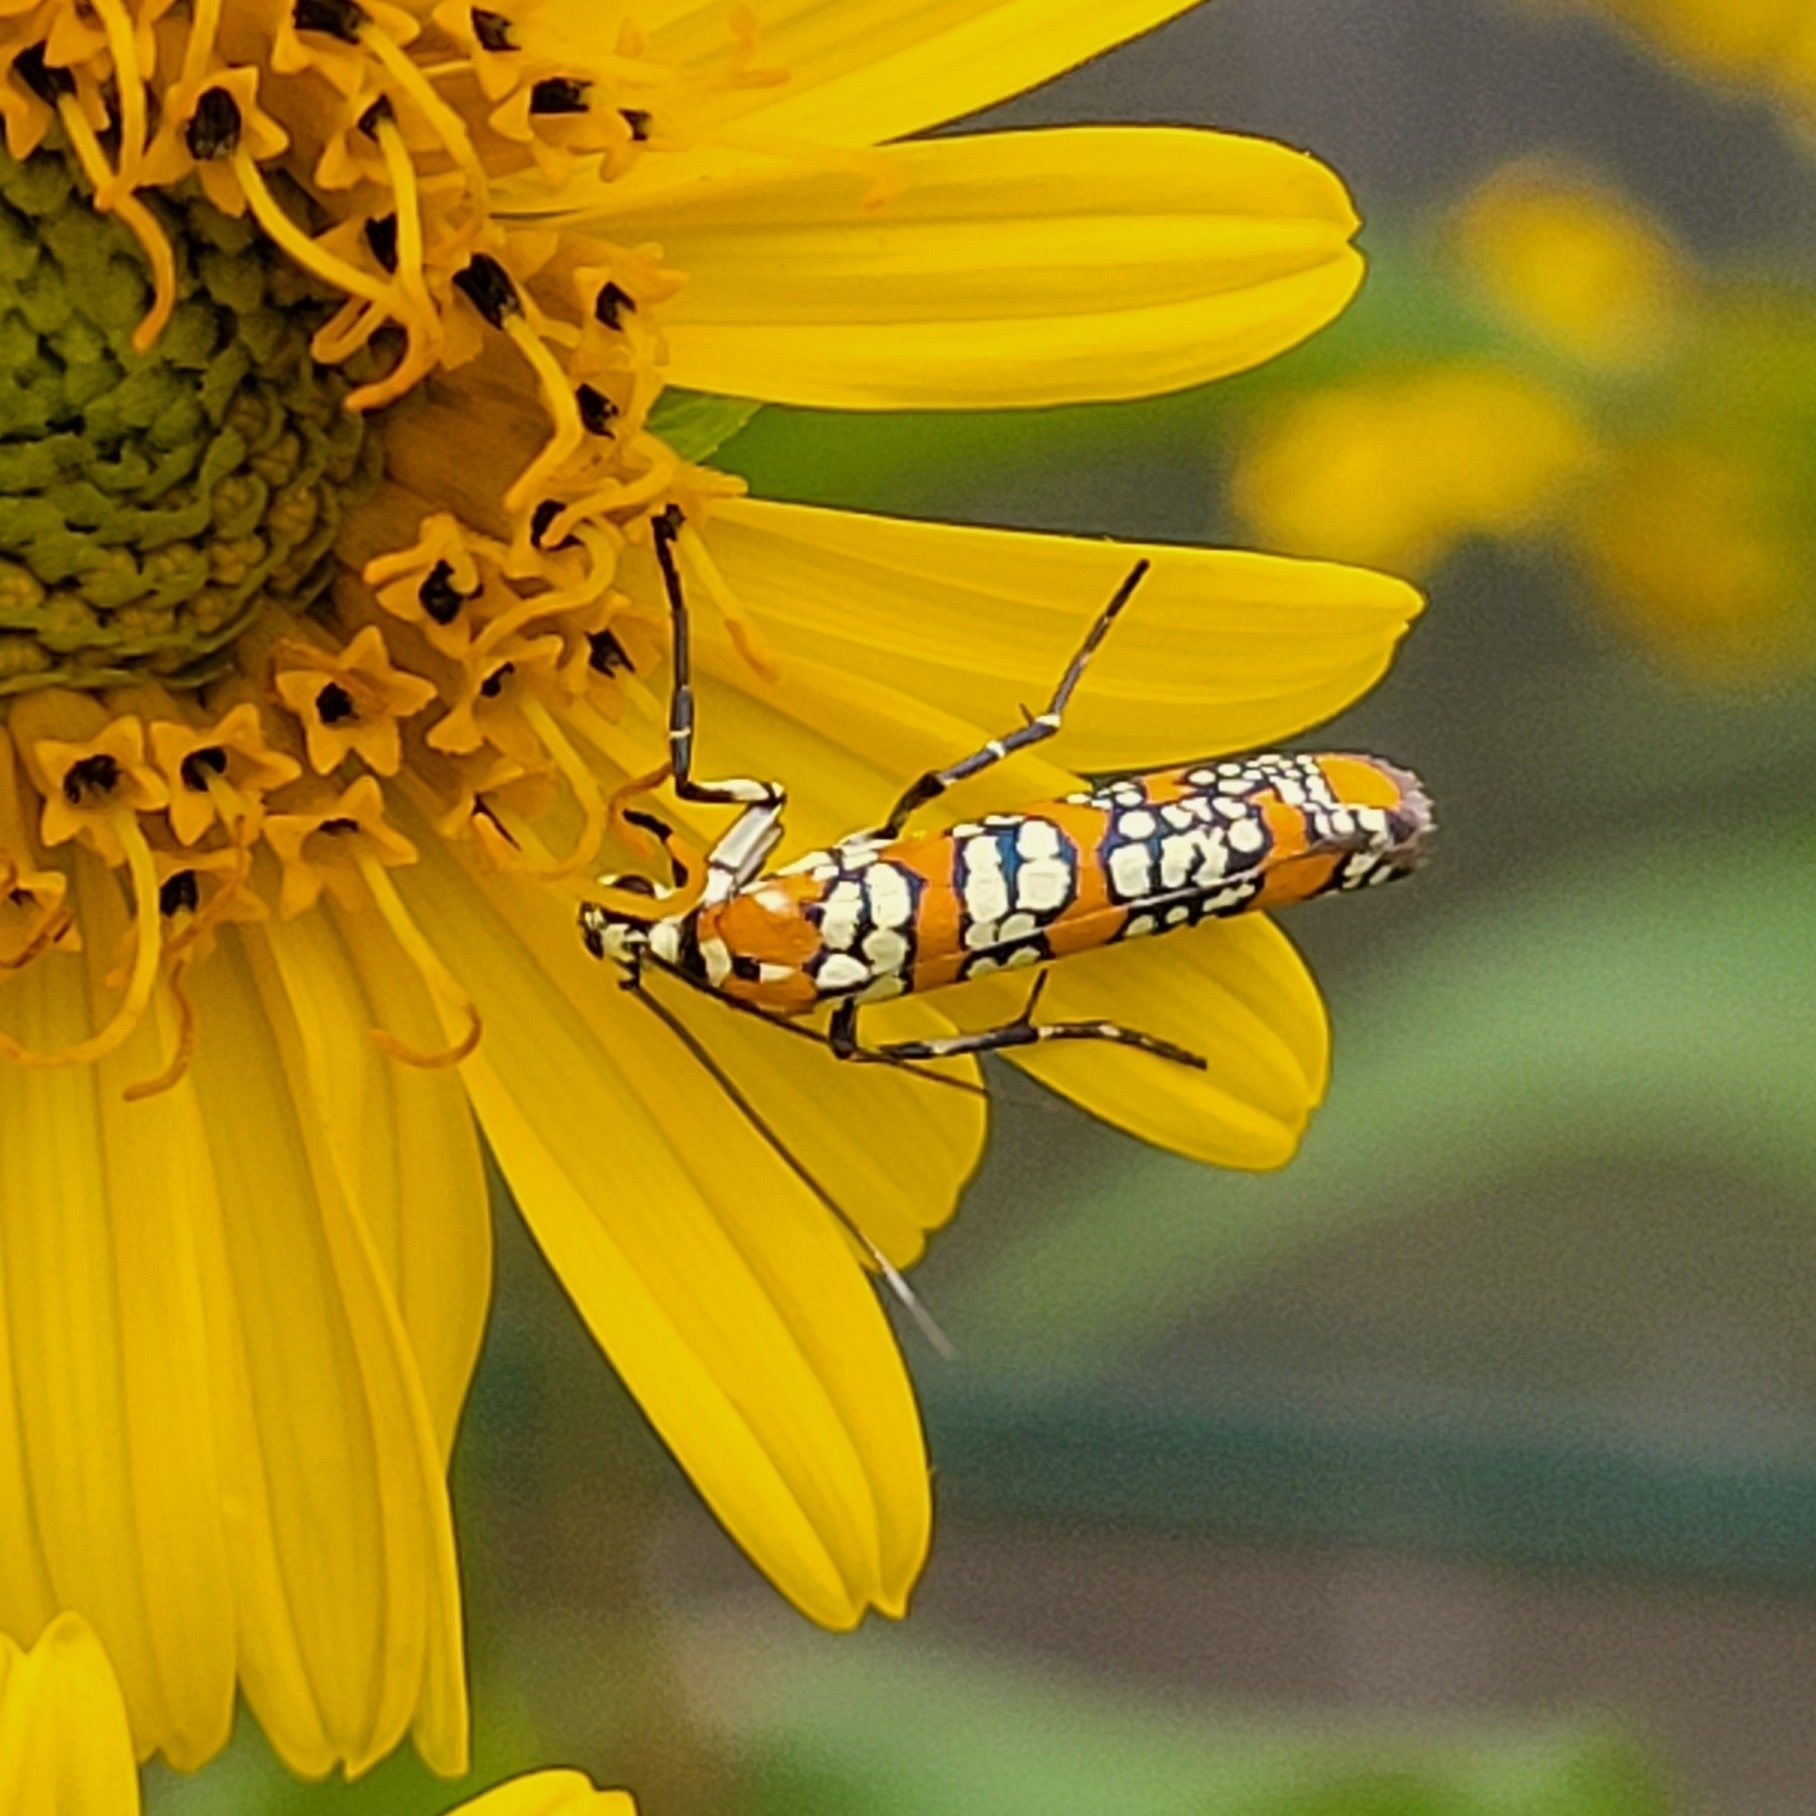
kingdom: Animalia
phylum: Arthropoda
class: Insecta
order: Lepidoptera
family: Attevidae
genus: Atteva
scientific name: Atteva punctella
